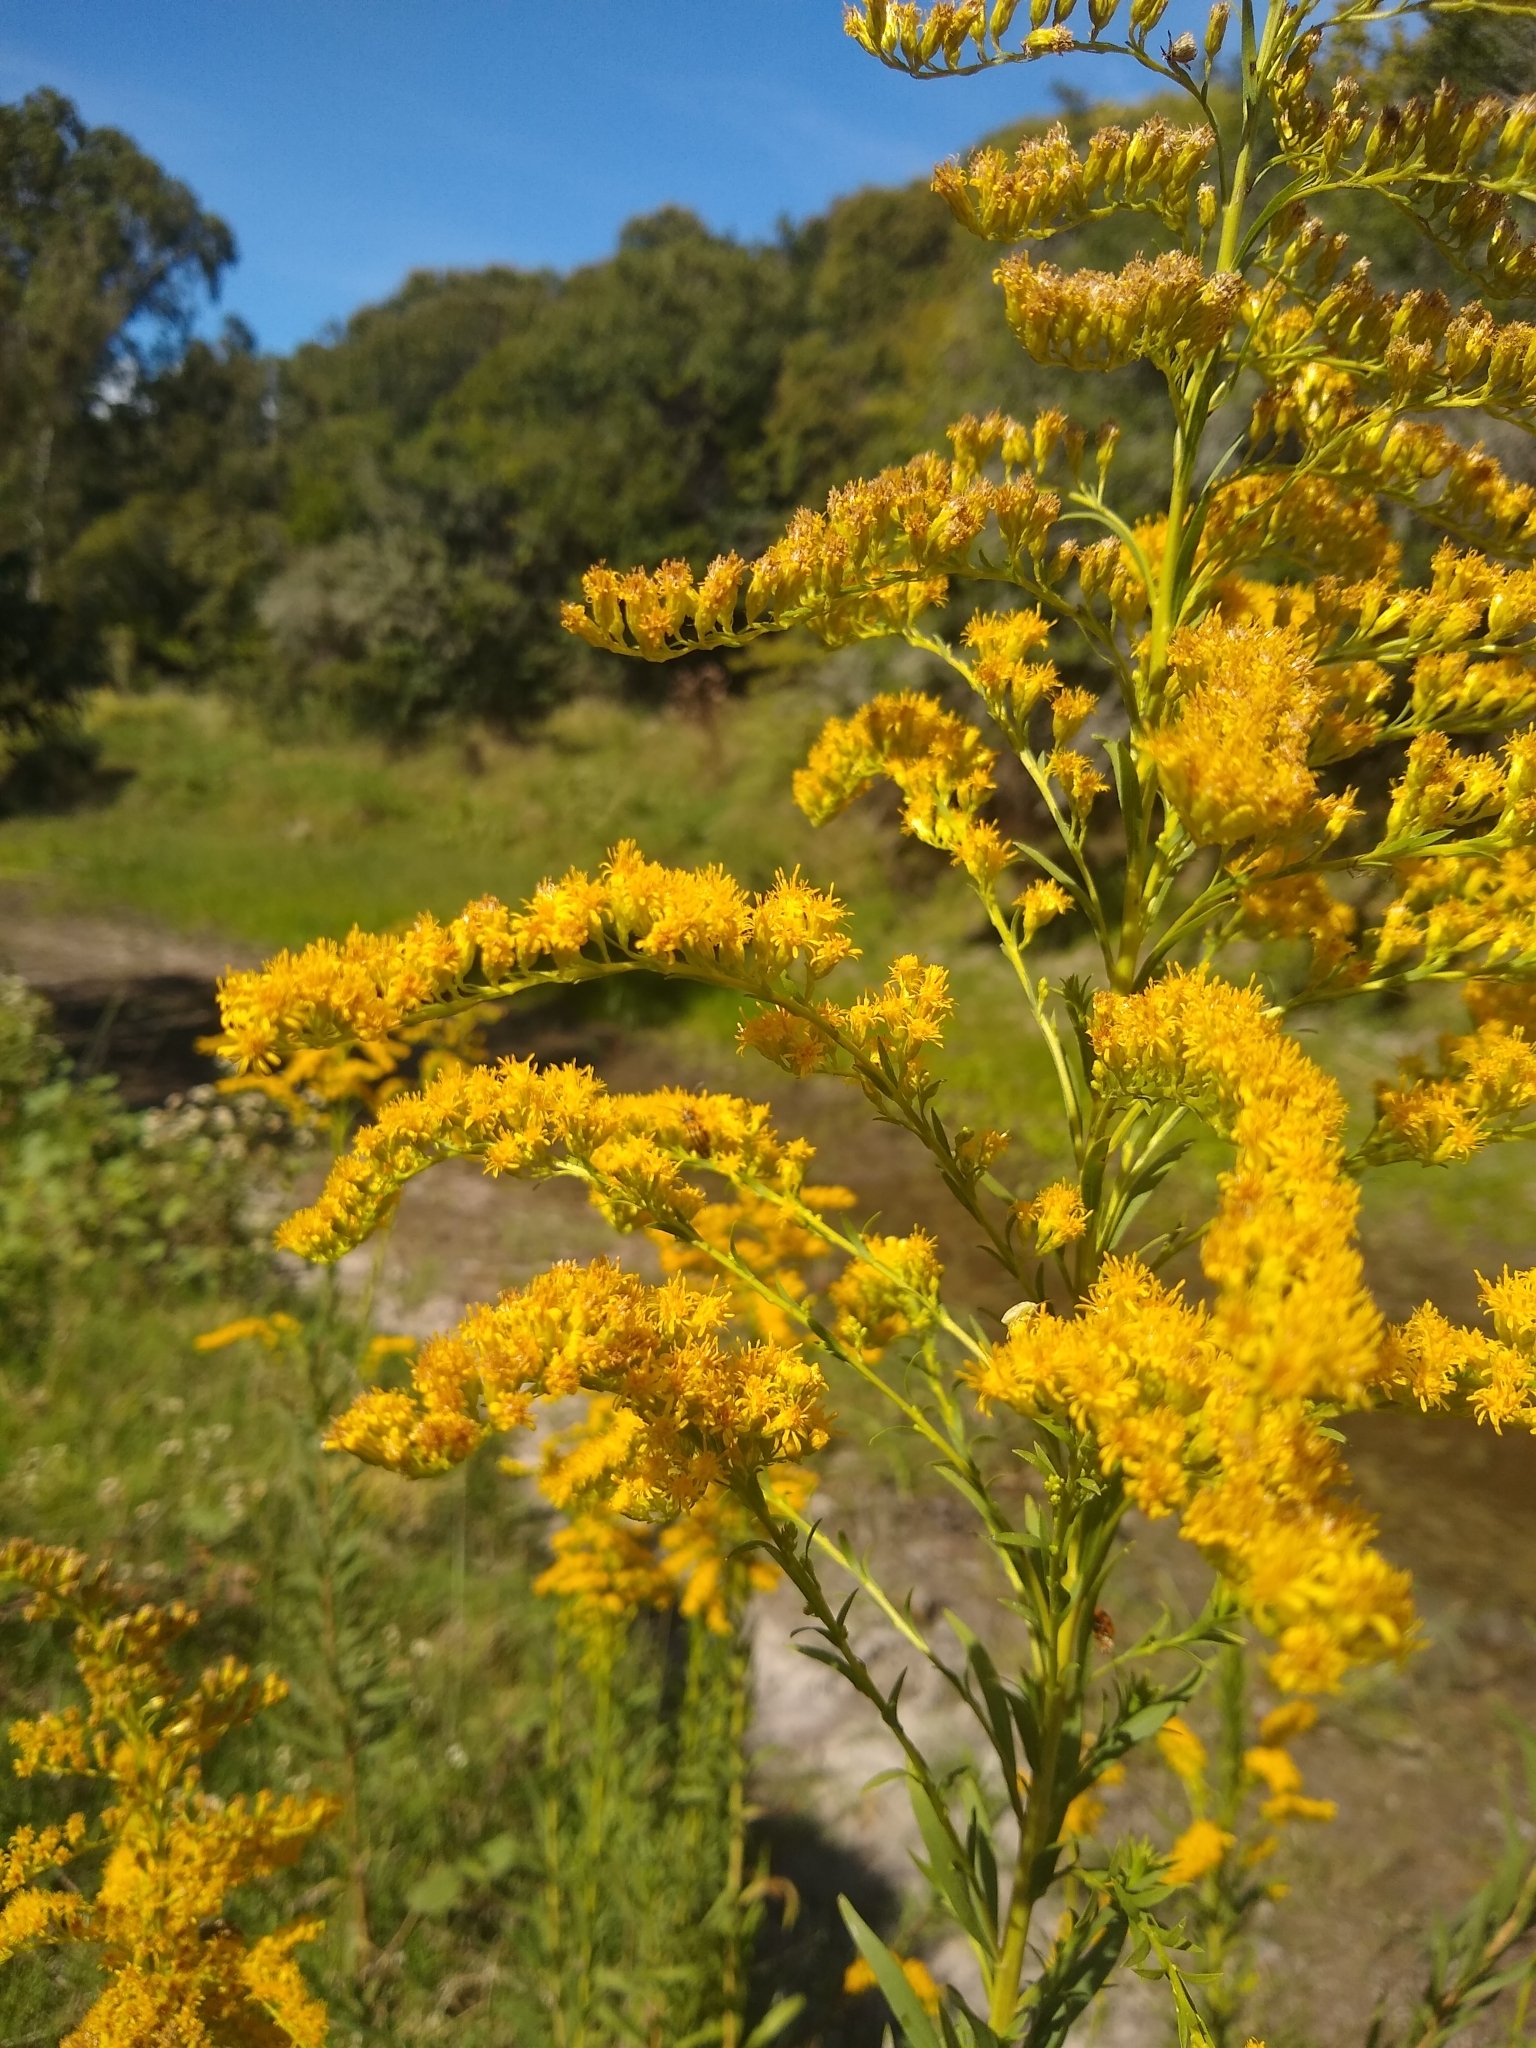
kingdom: Plantae
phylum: Tracheophyta
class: Magnoliopsida
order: Asterales
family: Asteraceae
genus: Solidago
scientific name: Solidago chilensis
